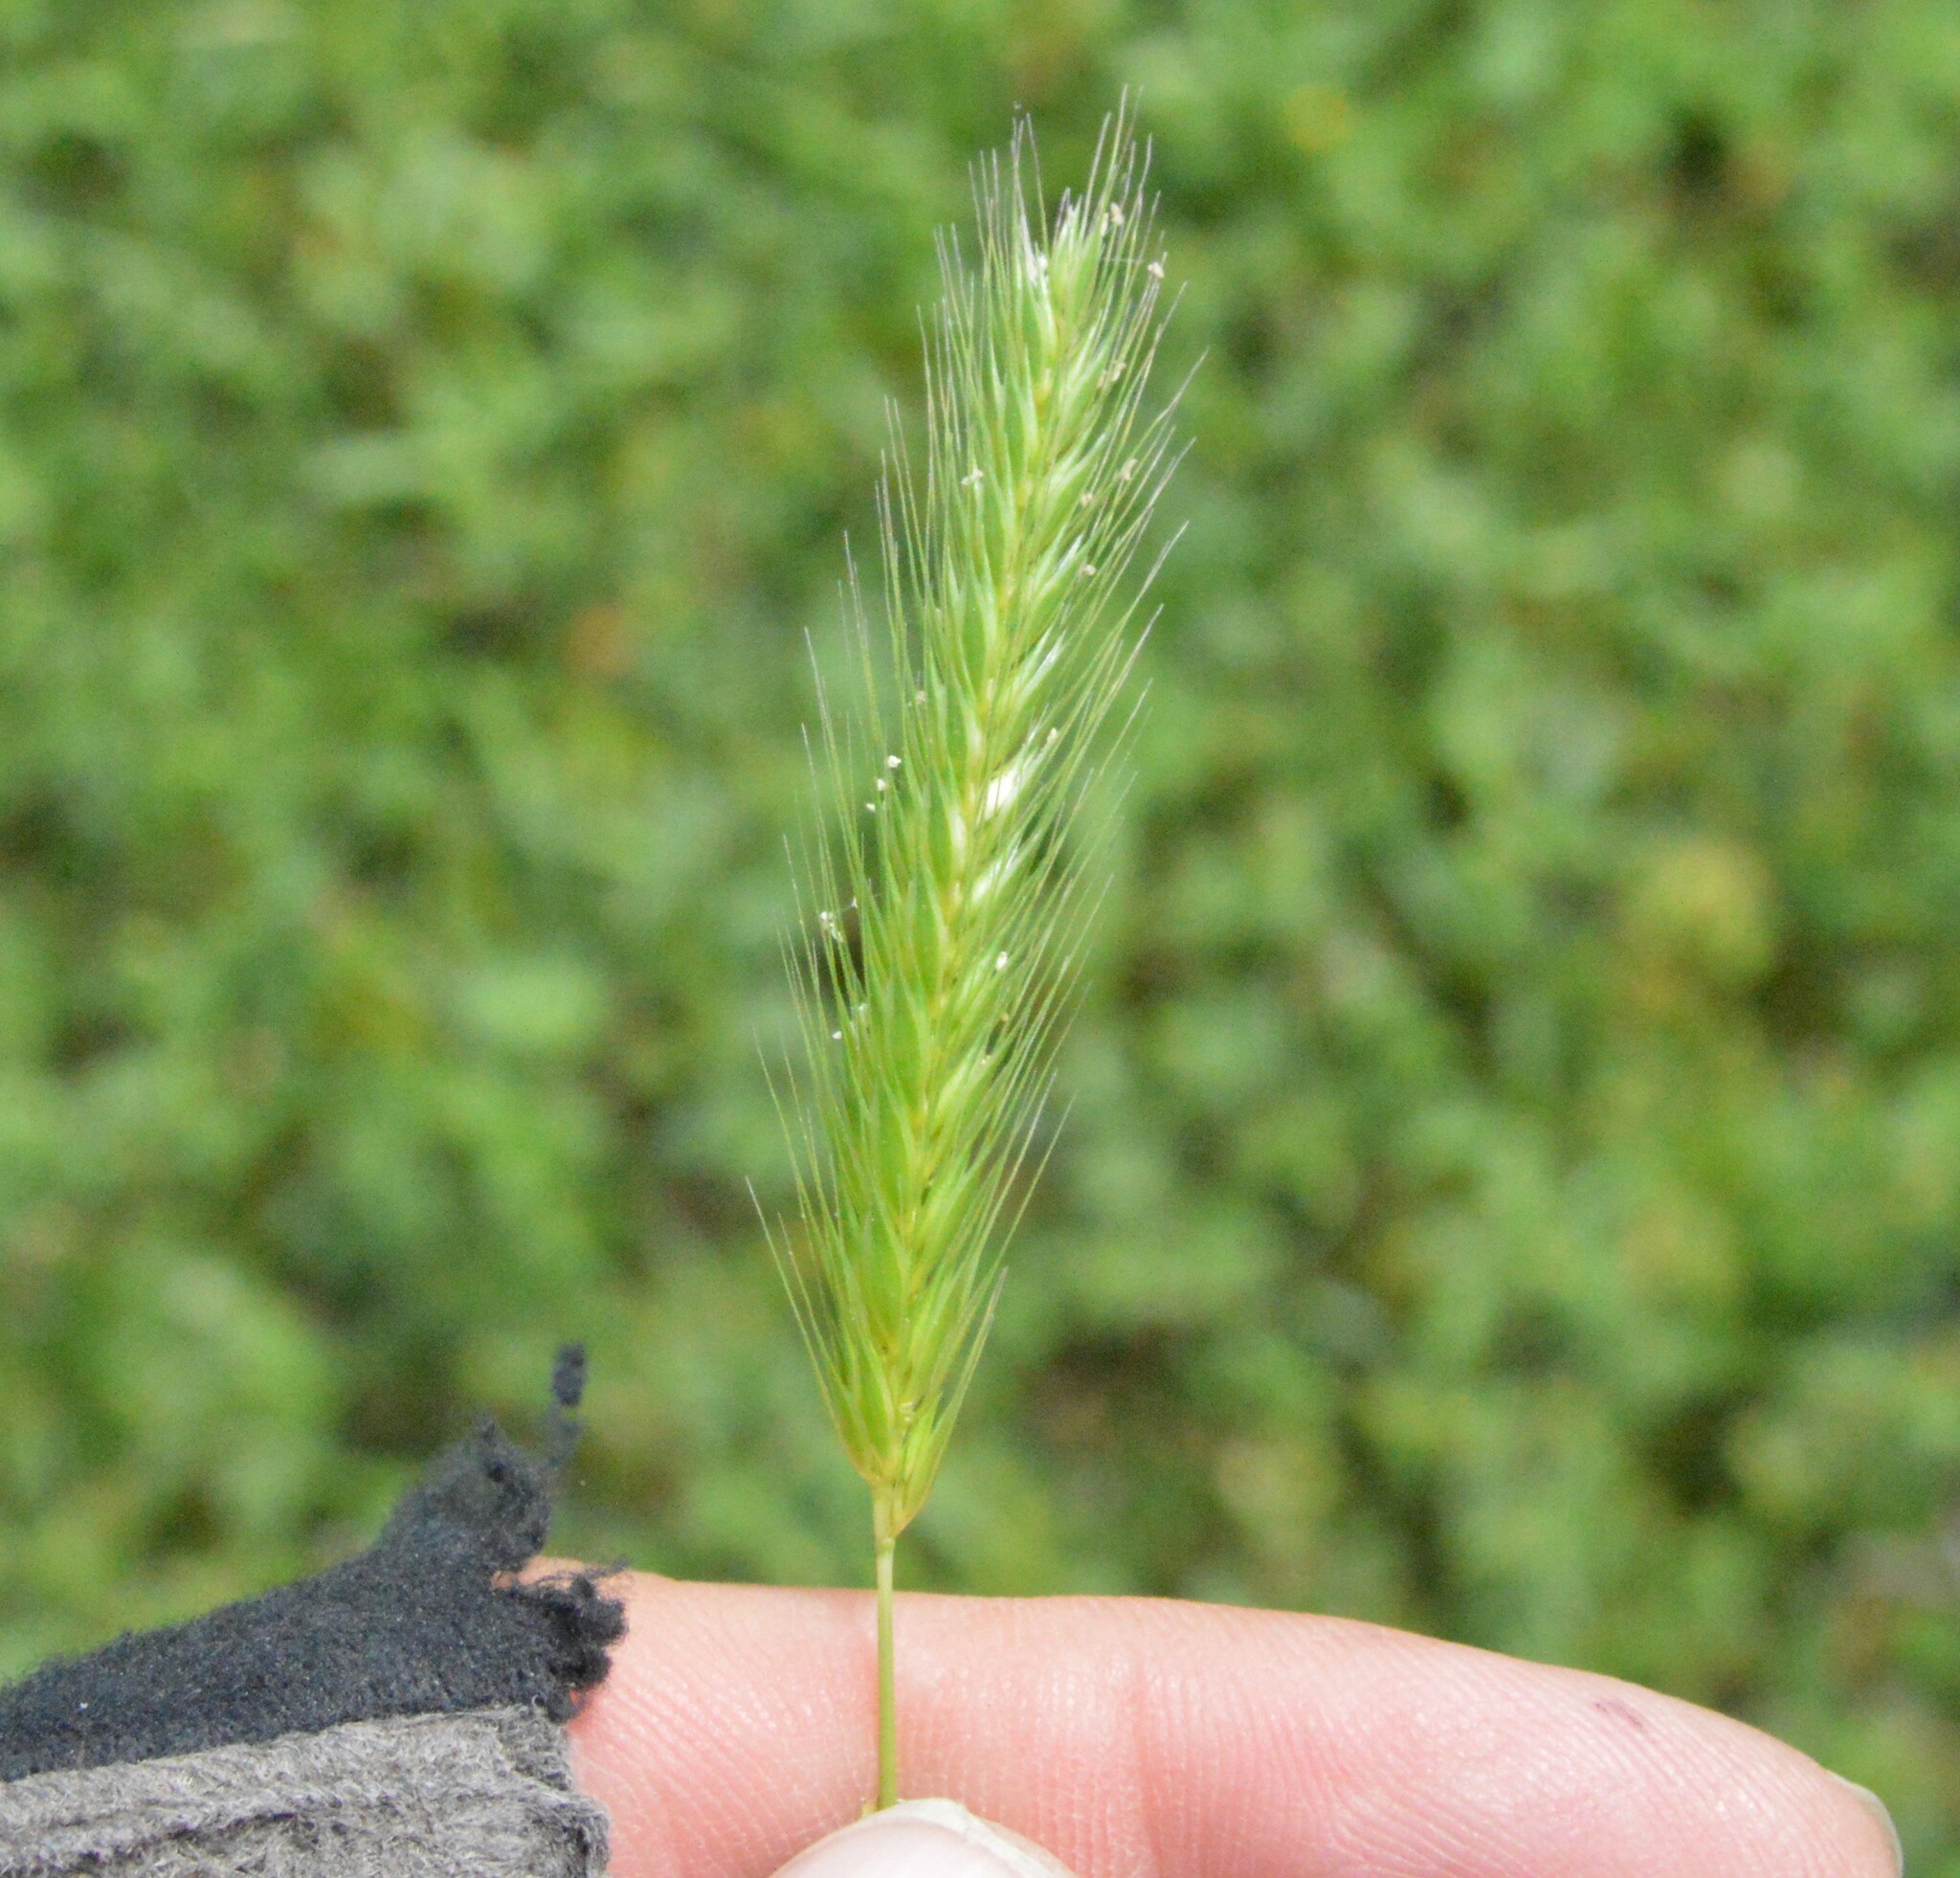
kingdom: Plantae
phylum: Tracheophyta
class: Liliopsida
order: Poales
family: Poaceae
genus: Hordeum
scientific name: Hordeum pusillum
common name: Little barley
